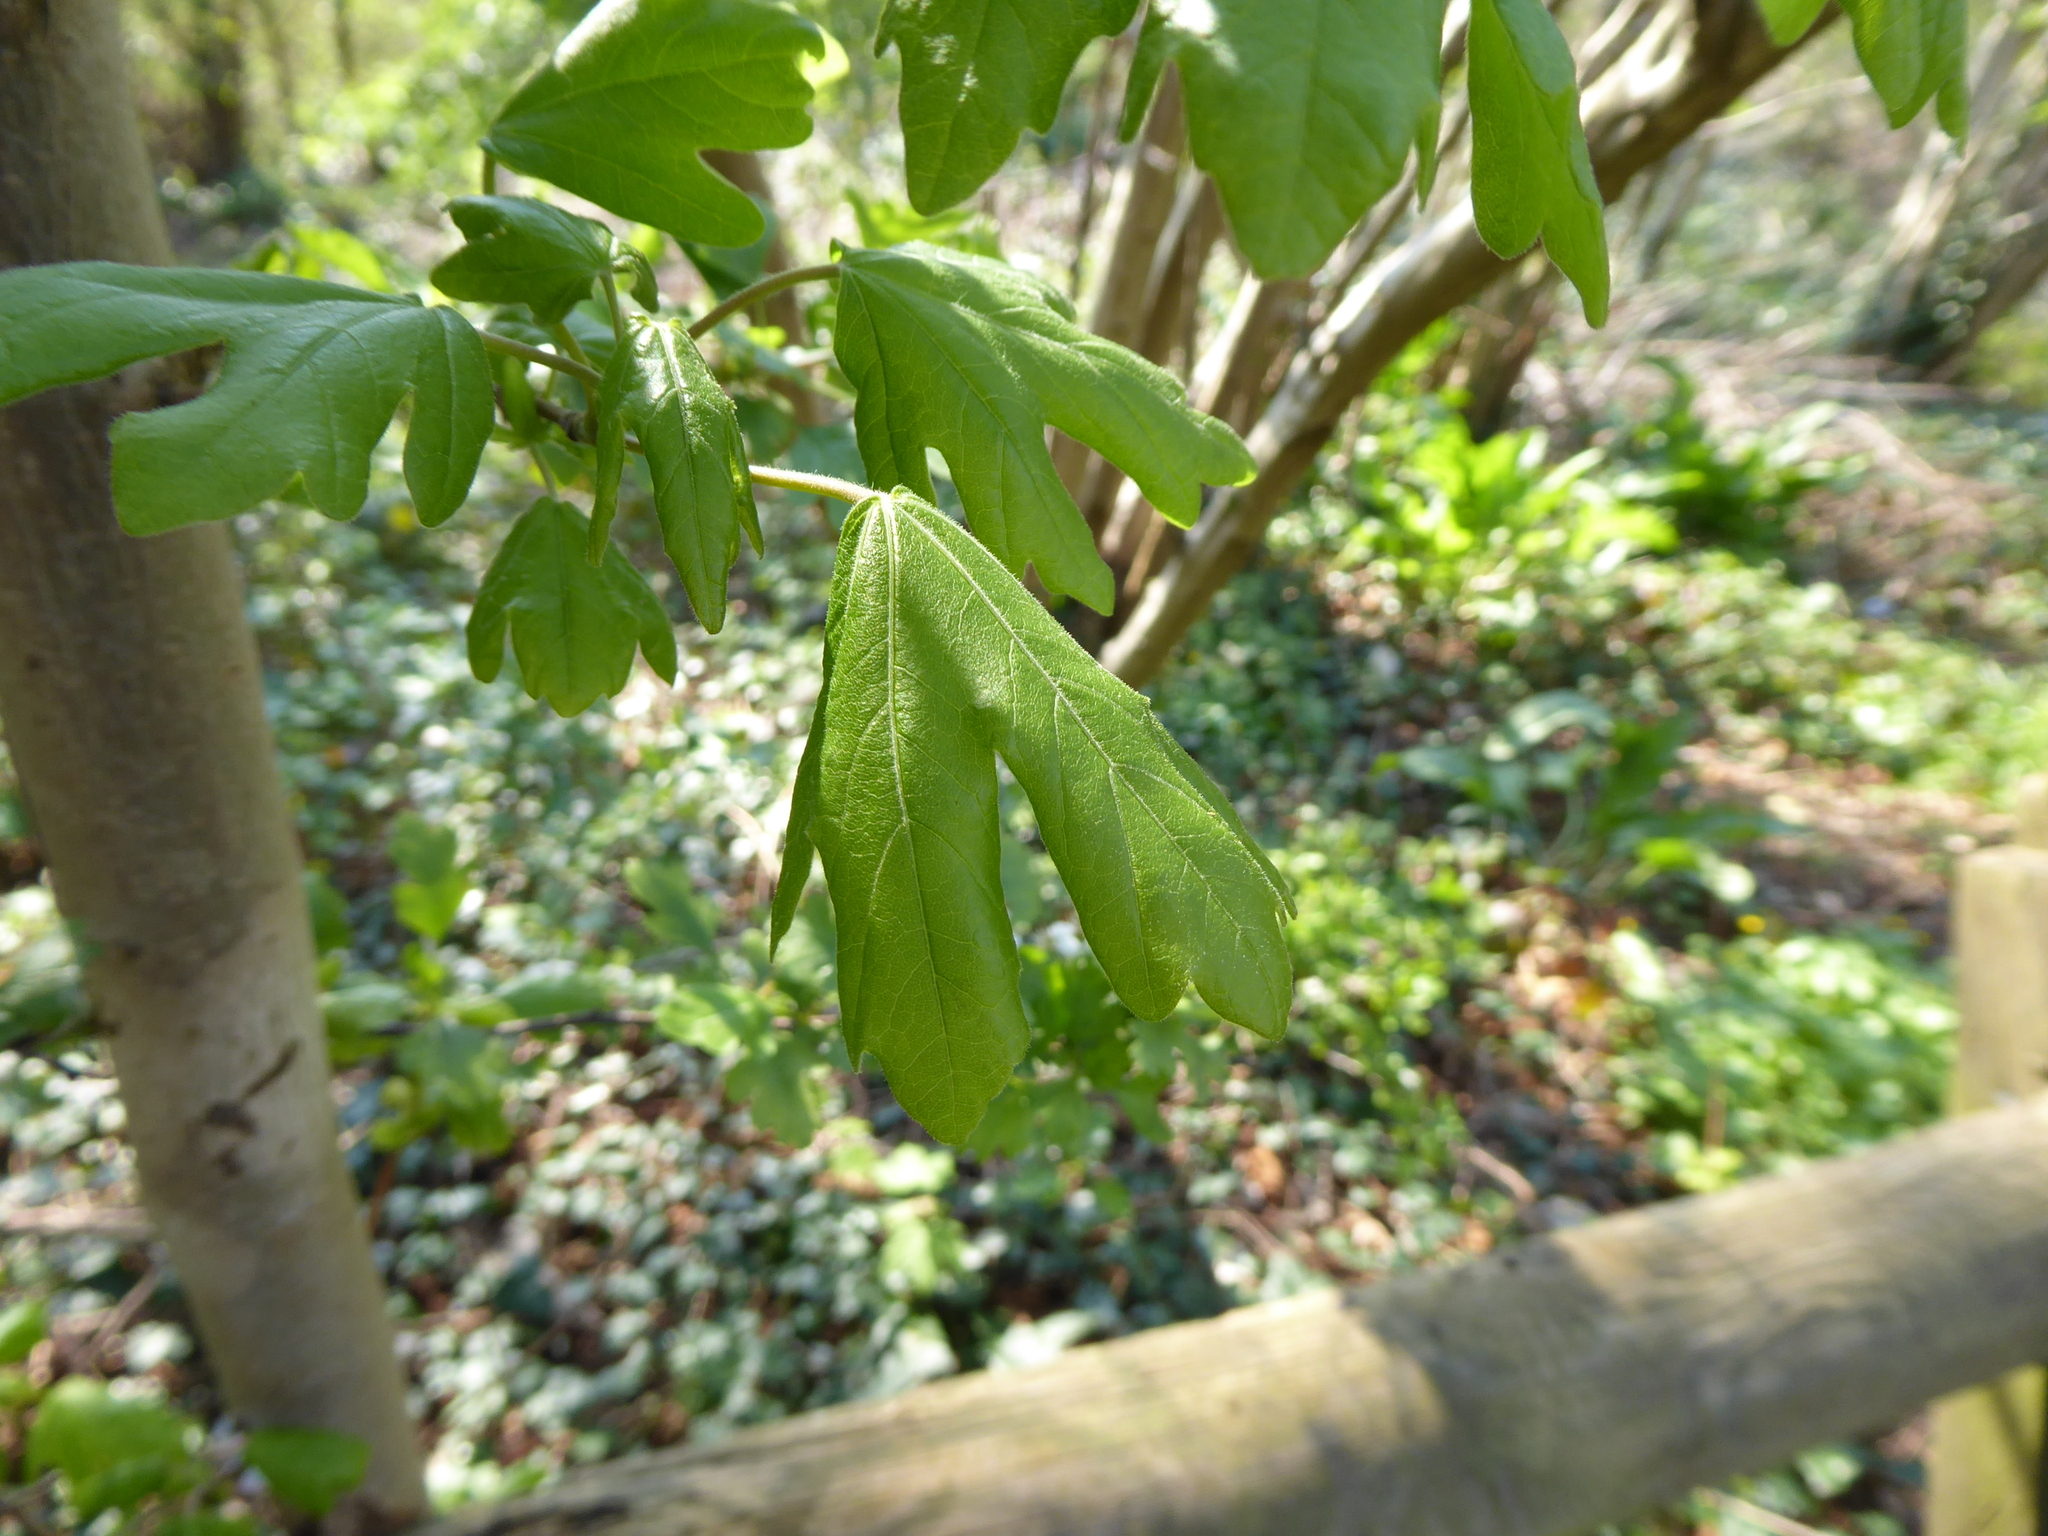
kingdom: Plantae
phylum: Tracheophyta
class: Magnoliopsida
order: Sapindales
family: Sapindaceae
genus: Acer
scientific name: Acer campestre
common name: Field maple
